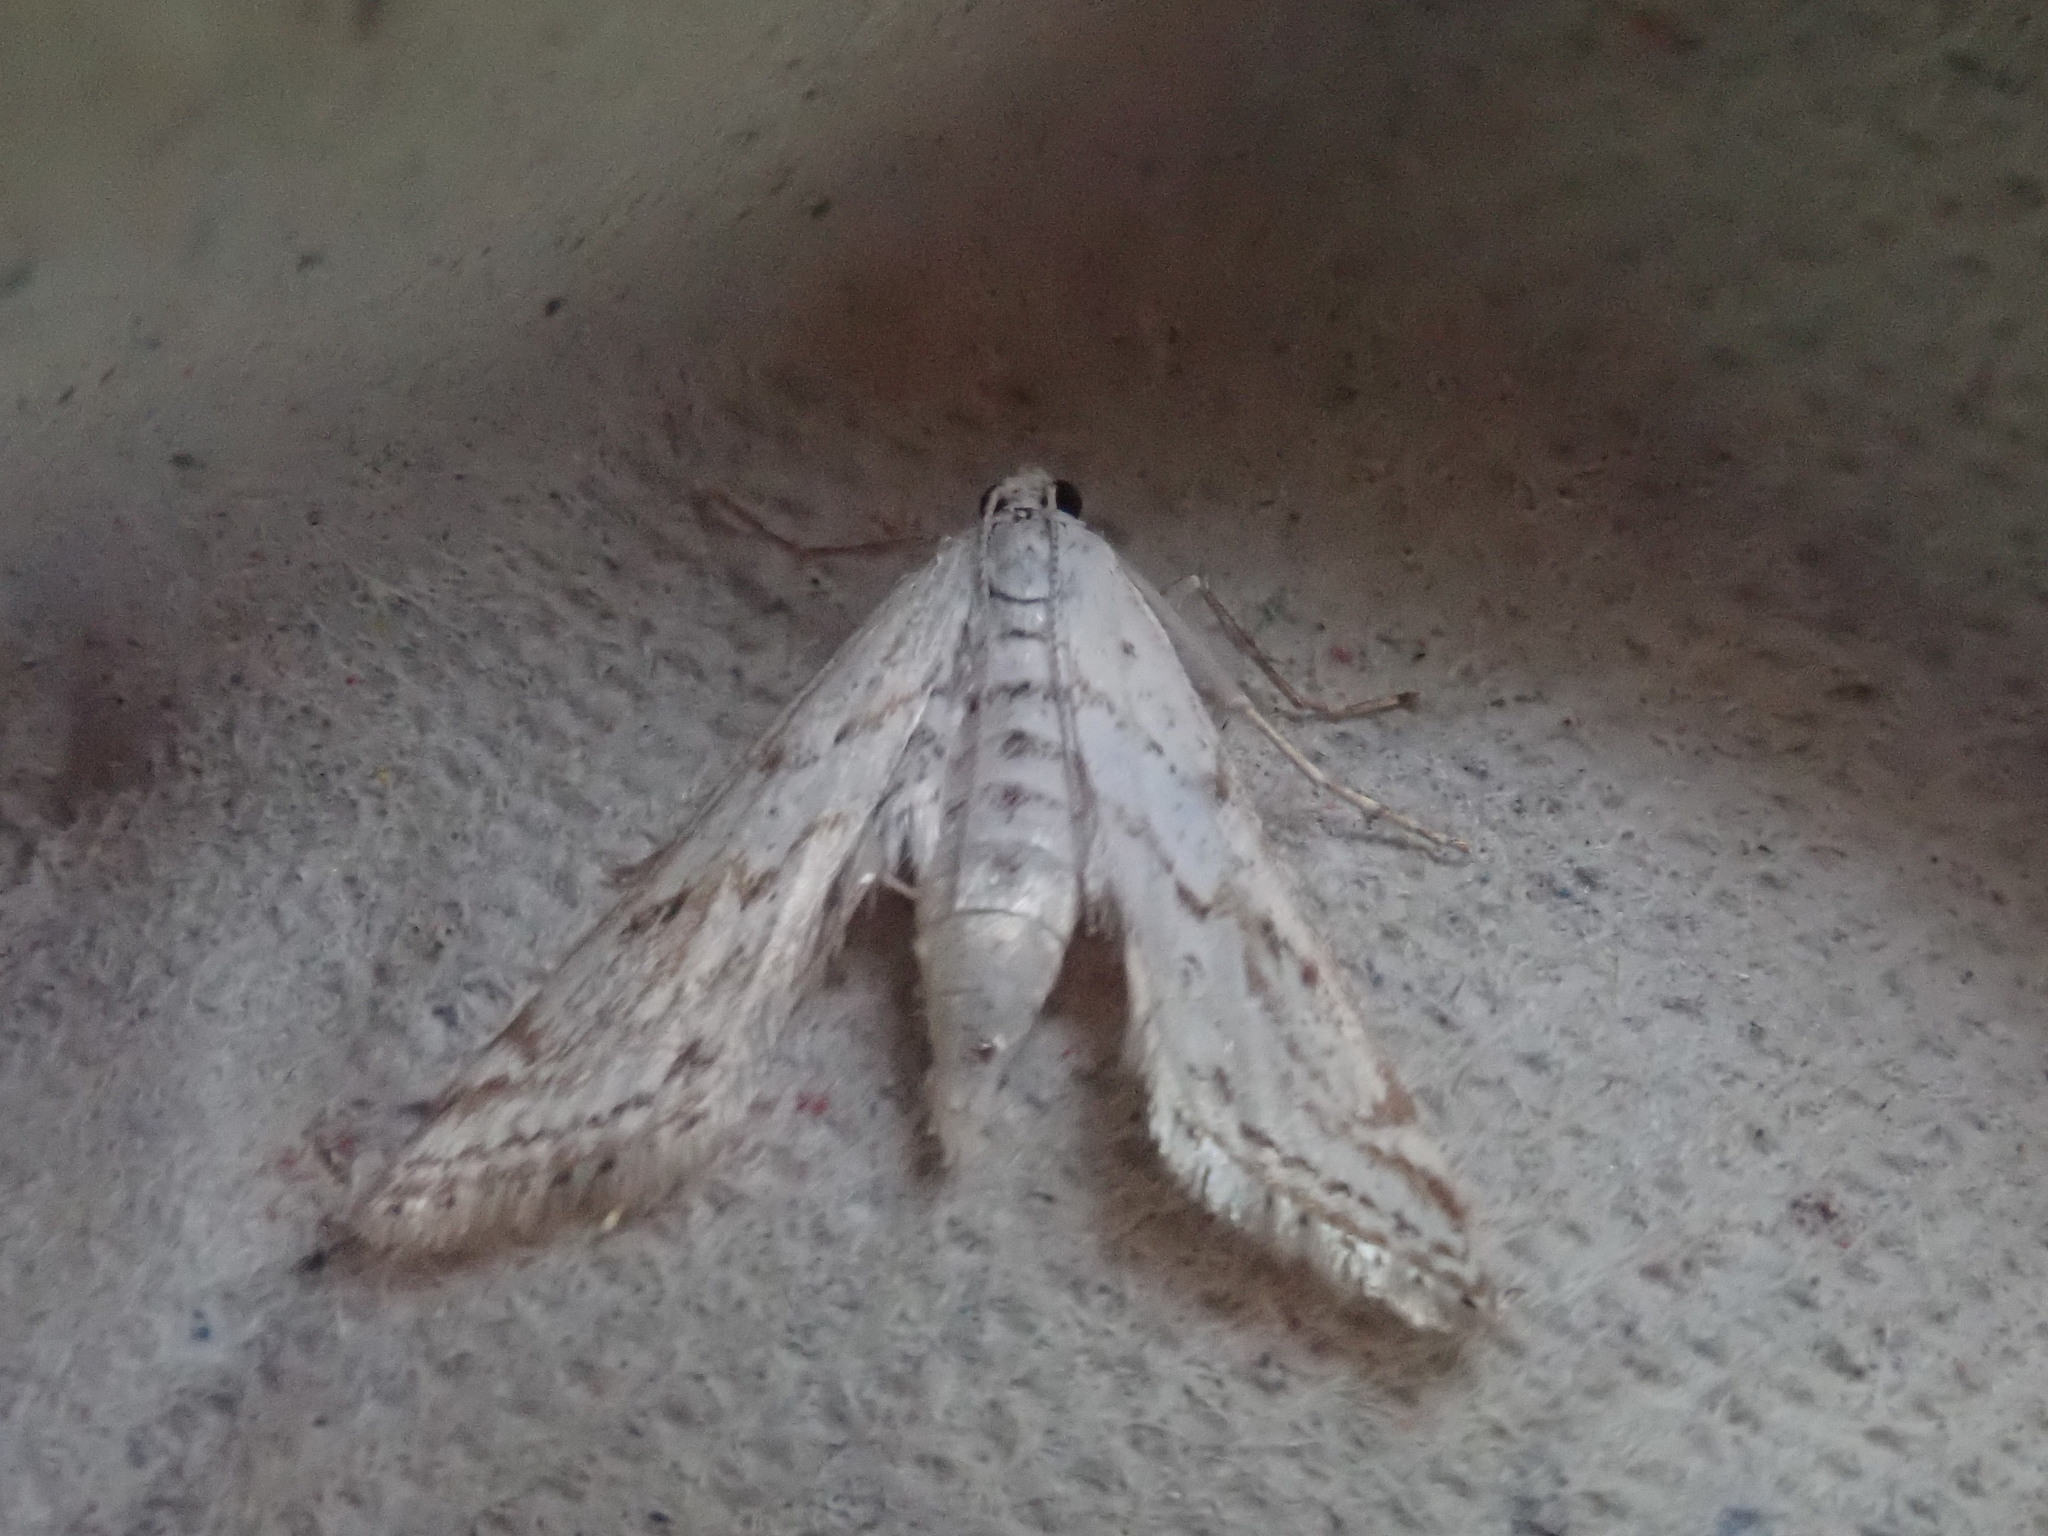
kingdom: Animalia
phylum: Arthropoda
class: Insecta
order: Lepidoptera
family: Crambidae
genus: Parapoynx
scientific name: Parapoynx allionealis
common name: Bladderwort casemaker
